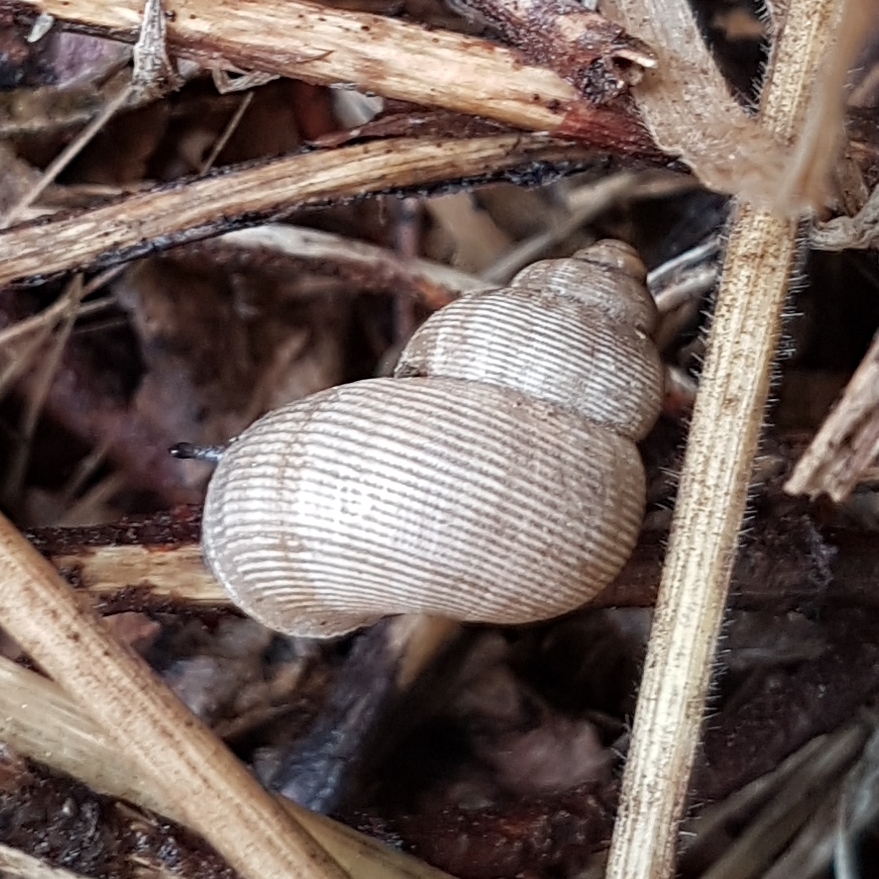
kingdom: Animalia
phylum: Mollusca
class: Gastropoda
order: Littorinimorpha
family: Pomatiidae
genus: Pomatias
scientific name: Pomatias elegans
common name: Red-mouthed snail
